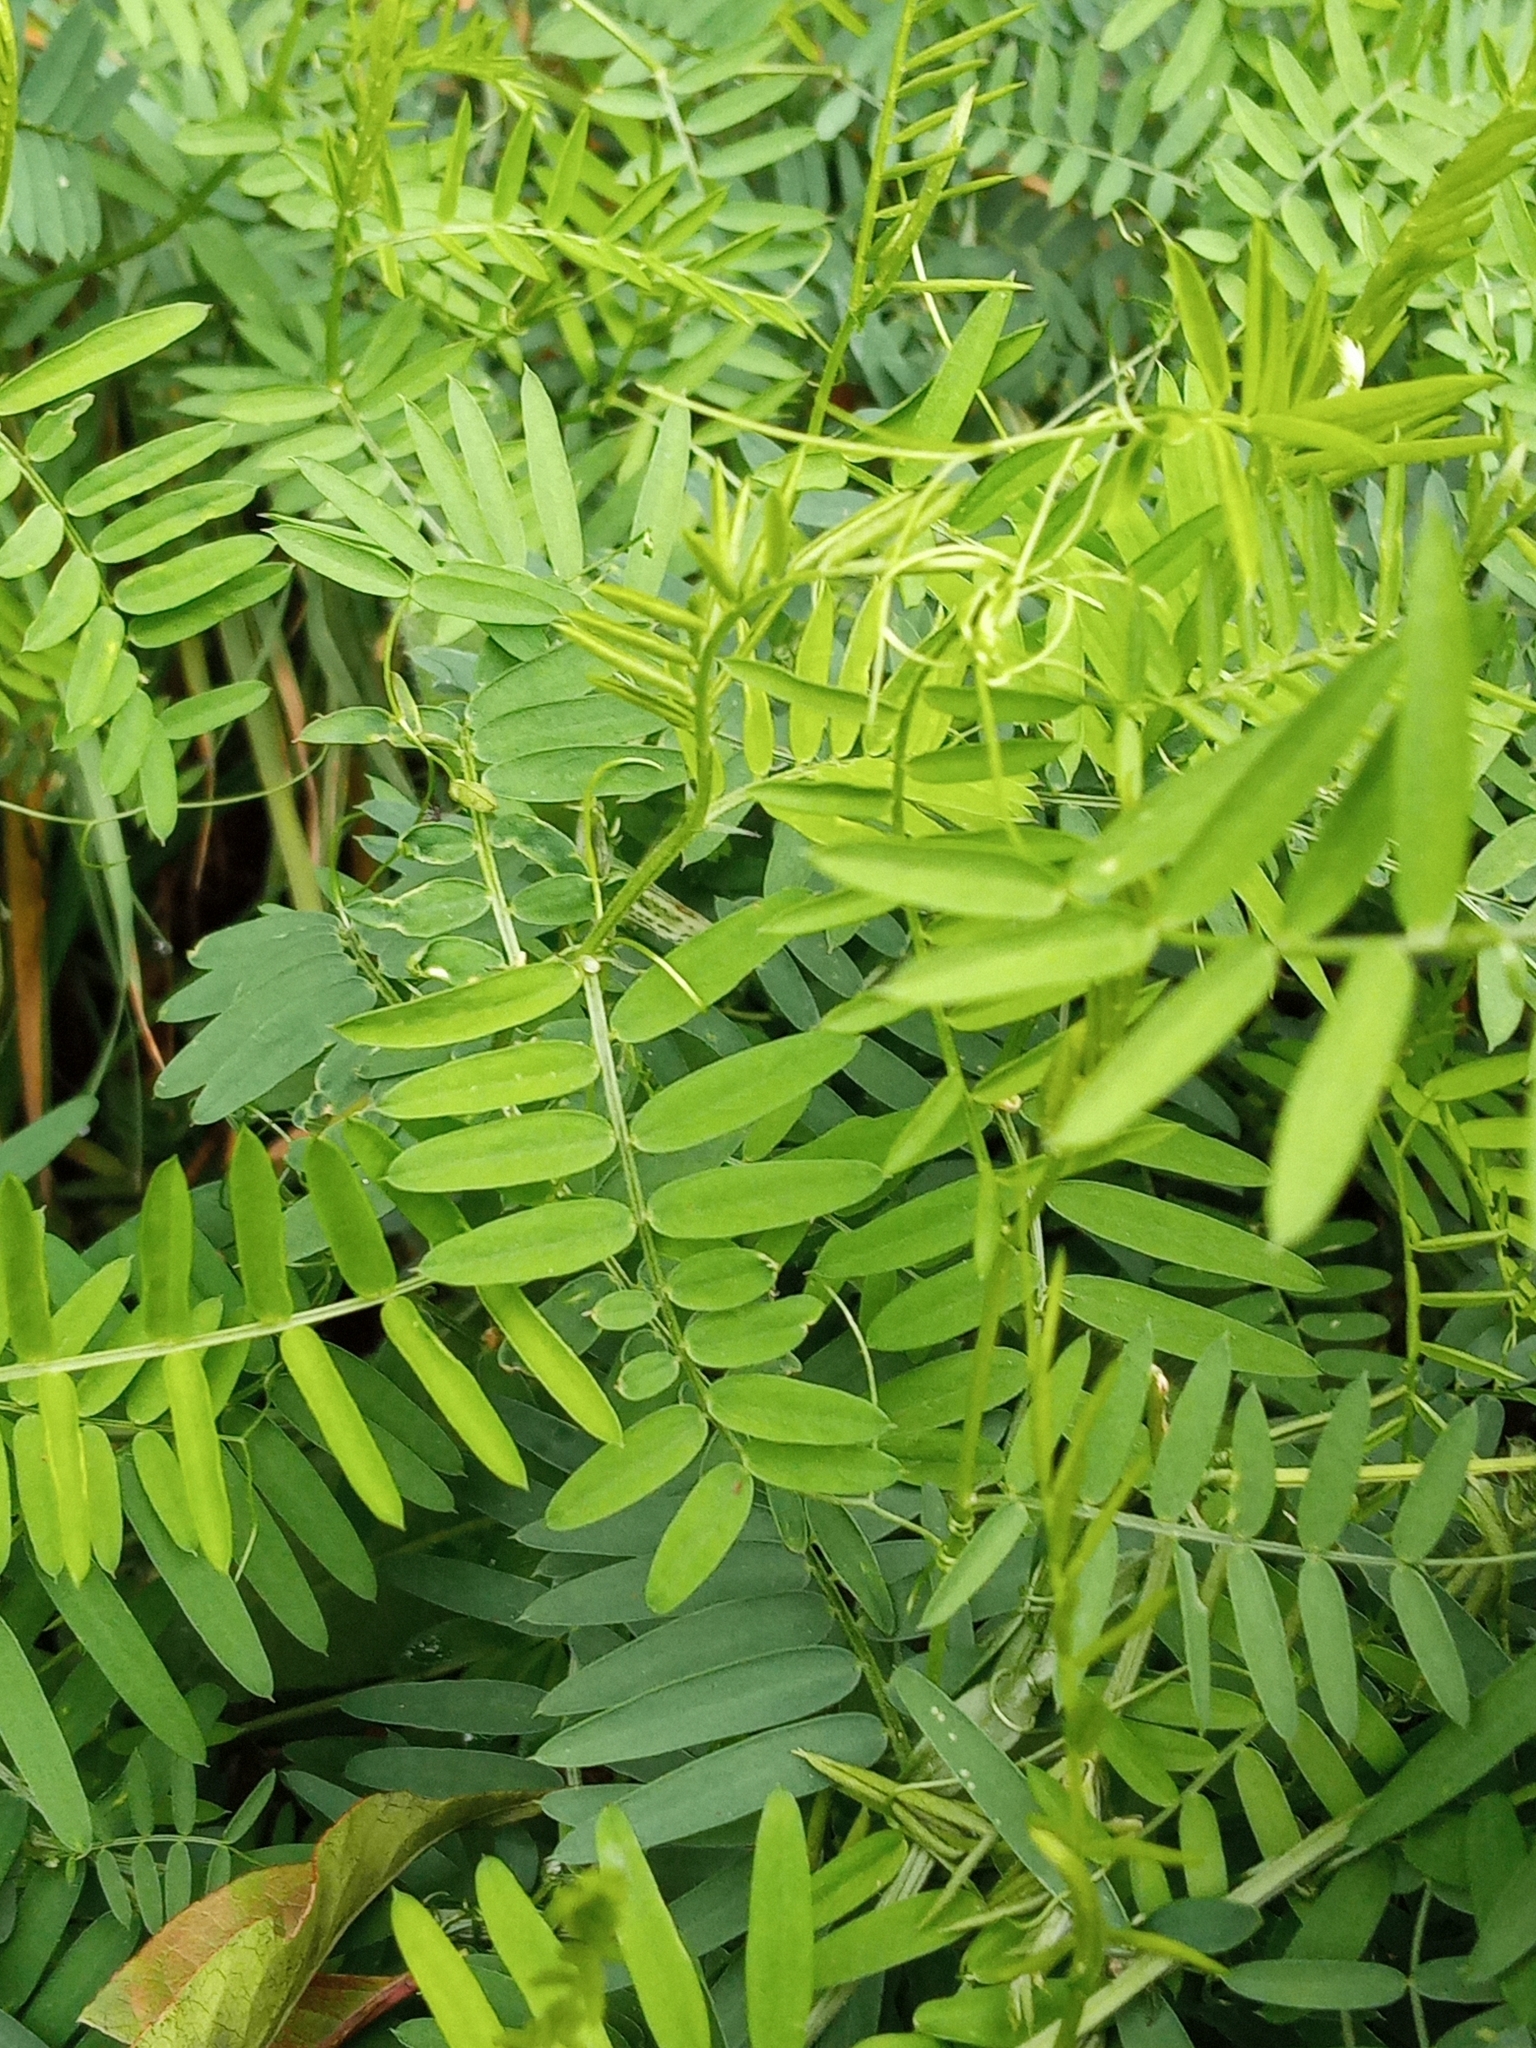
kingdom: Plantae
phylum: Tracheophyta
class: Magnoliopsida
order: Fabales
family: Fabaceae
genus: Vicia
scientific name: Vicia cracca
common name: Bird vetch
